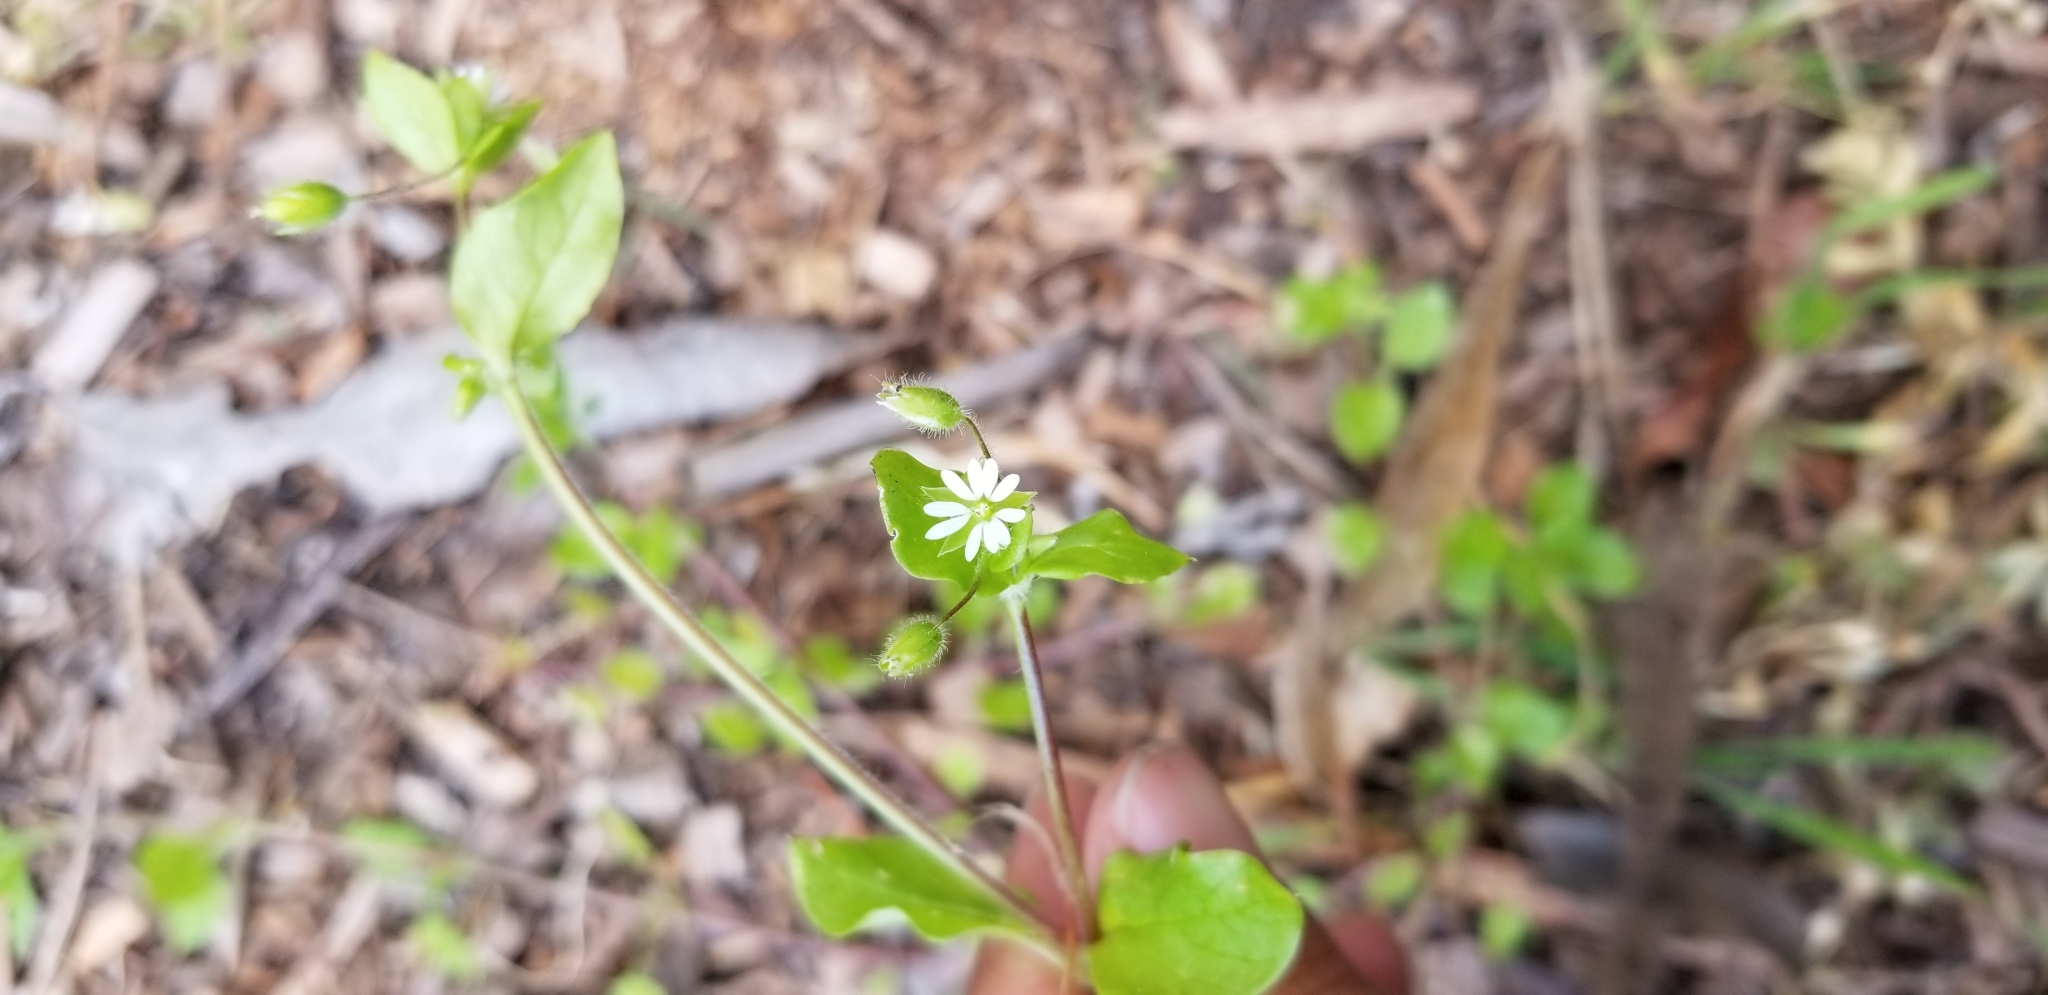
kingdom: Plantae
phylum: Tracheophyta
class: Magnoliopsida
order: Caryophyllales
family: Caryophyllaceae
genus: Cerastium
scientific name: Cerastium fontanum
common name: Common mouse-ear
